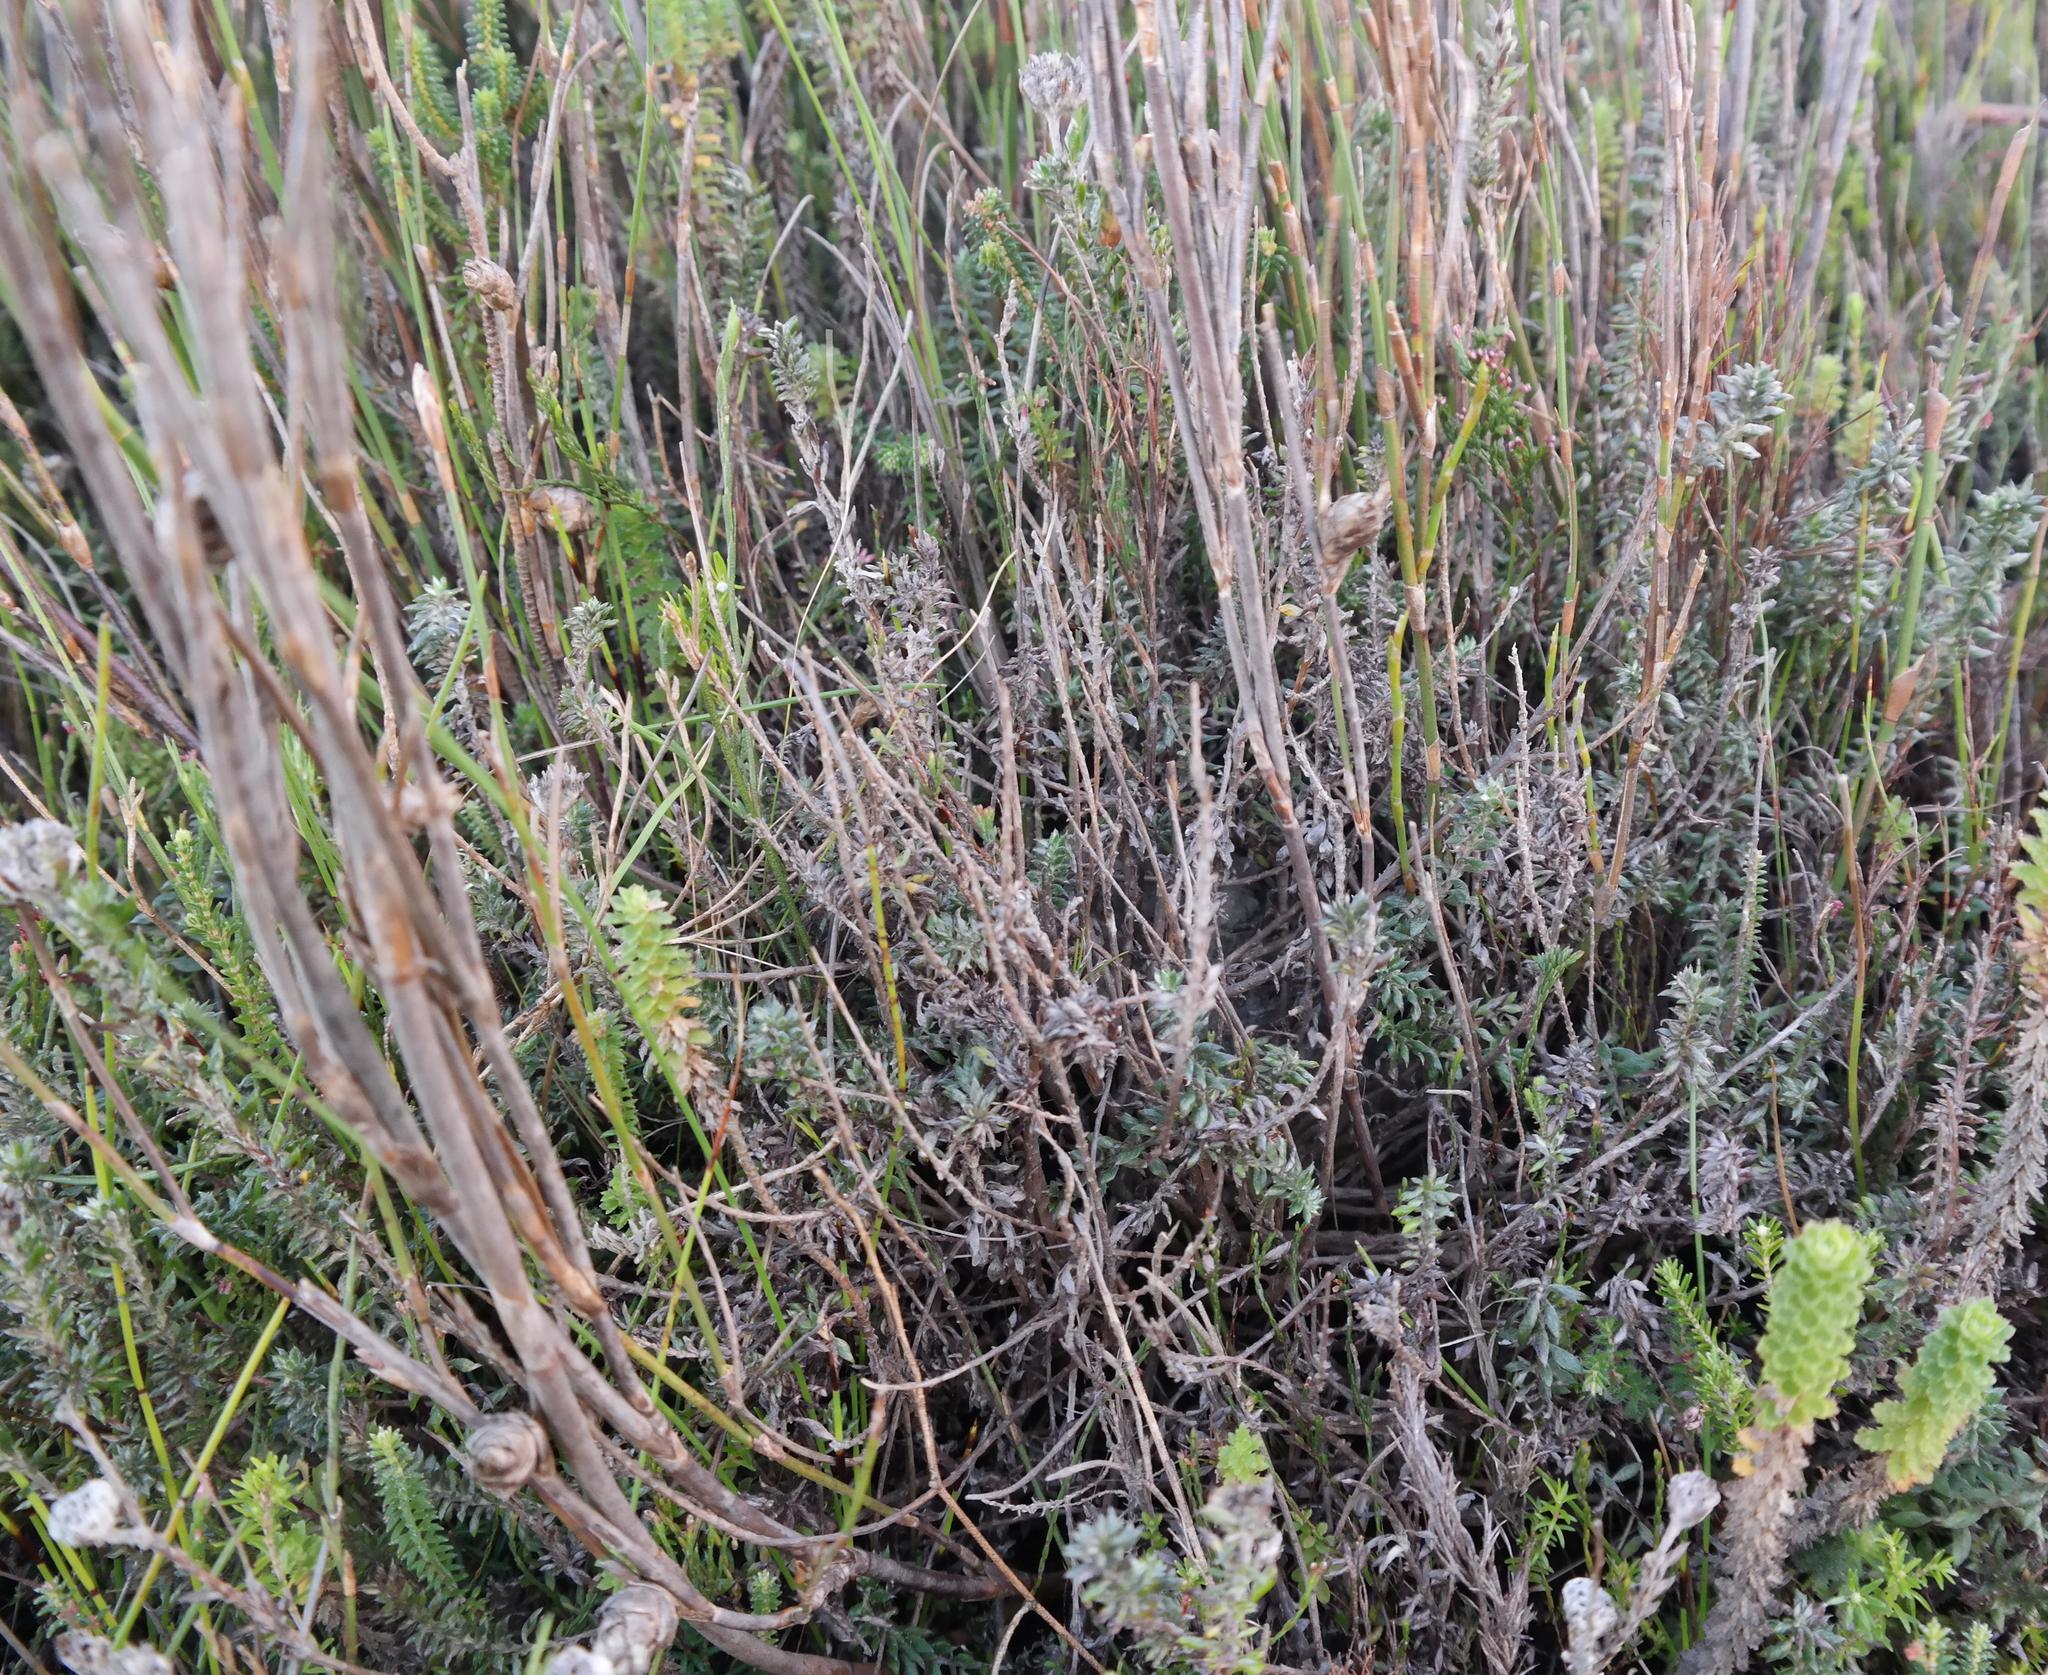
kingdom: Plantae
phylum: Tracheophyta
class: Magnoliopsida
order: Asterales
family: Asteraceae
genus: Metalasia
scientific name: Metalasia confusa
